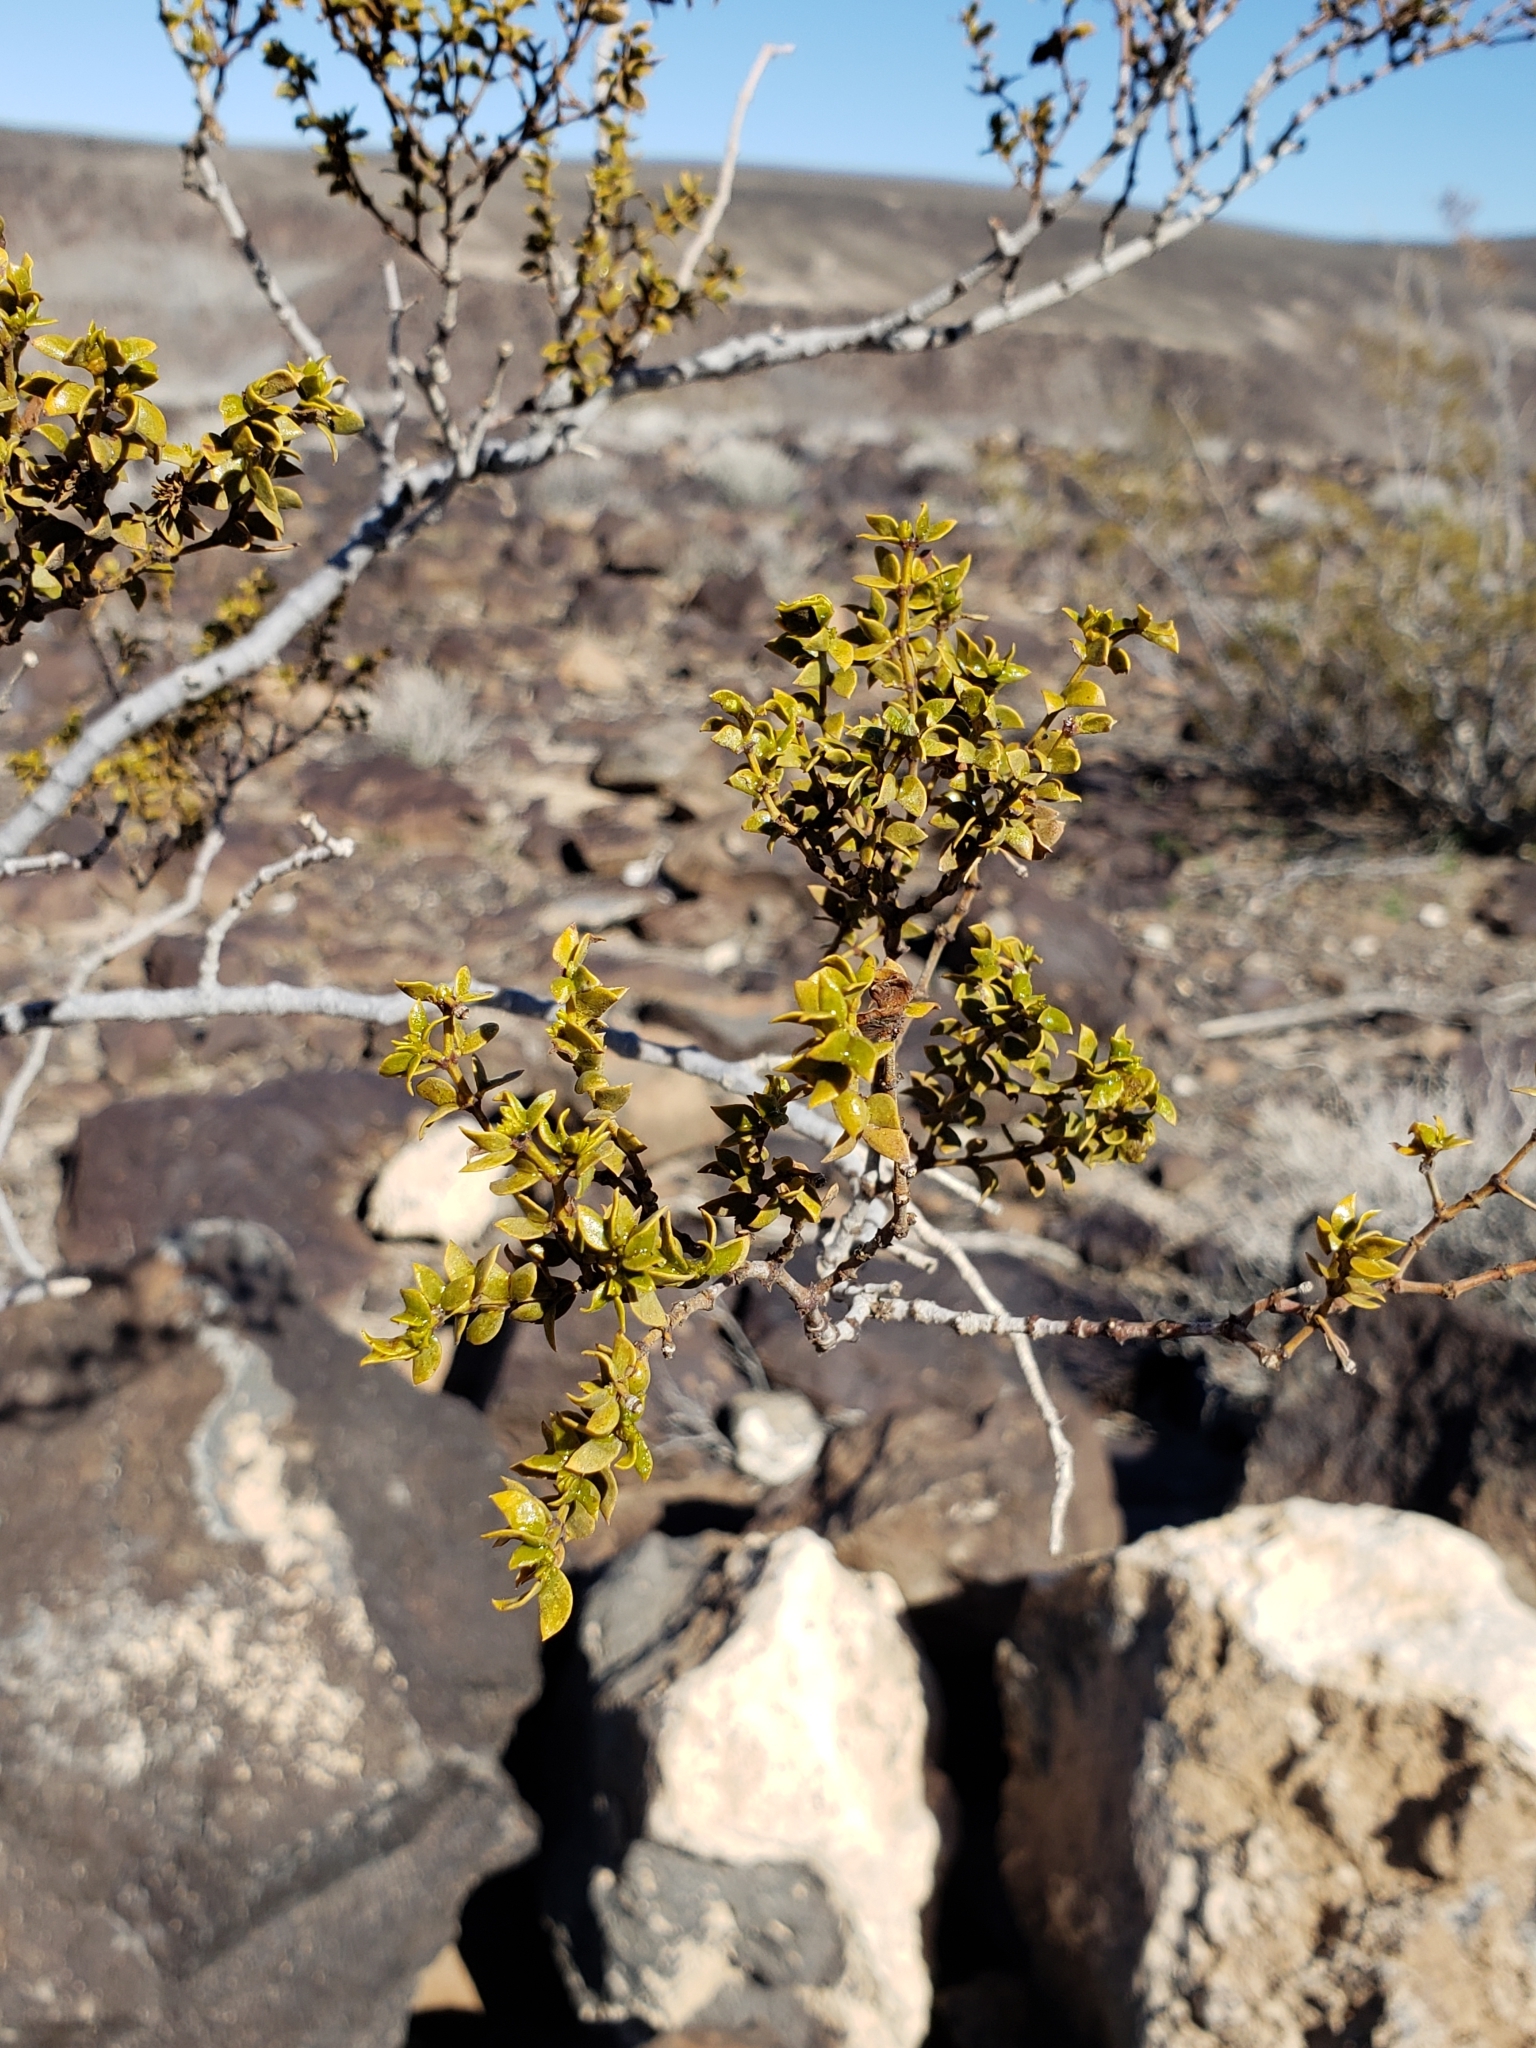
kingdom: Plantae
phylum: Tracheophyta
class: Magnoliopsida
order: Zygophyllales
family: Zygophyllaceae
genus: Larrea
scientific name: Larrea tridentata
